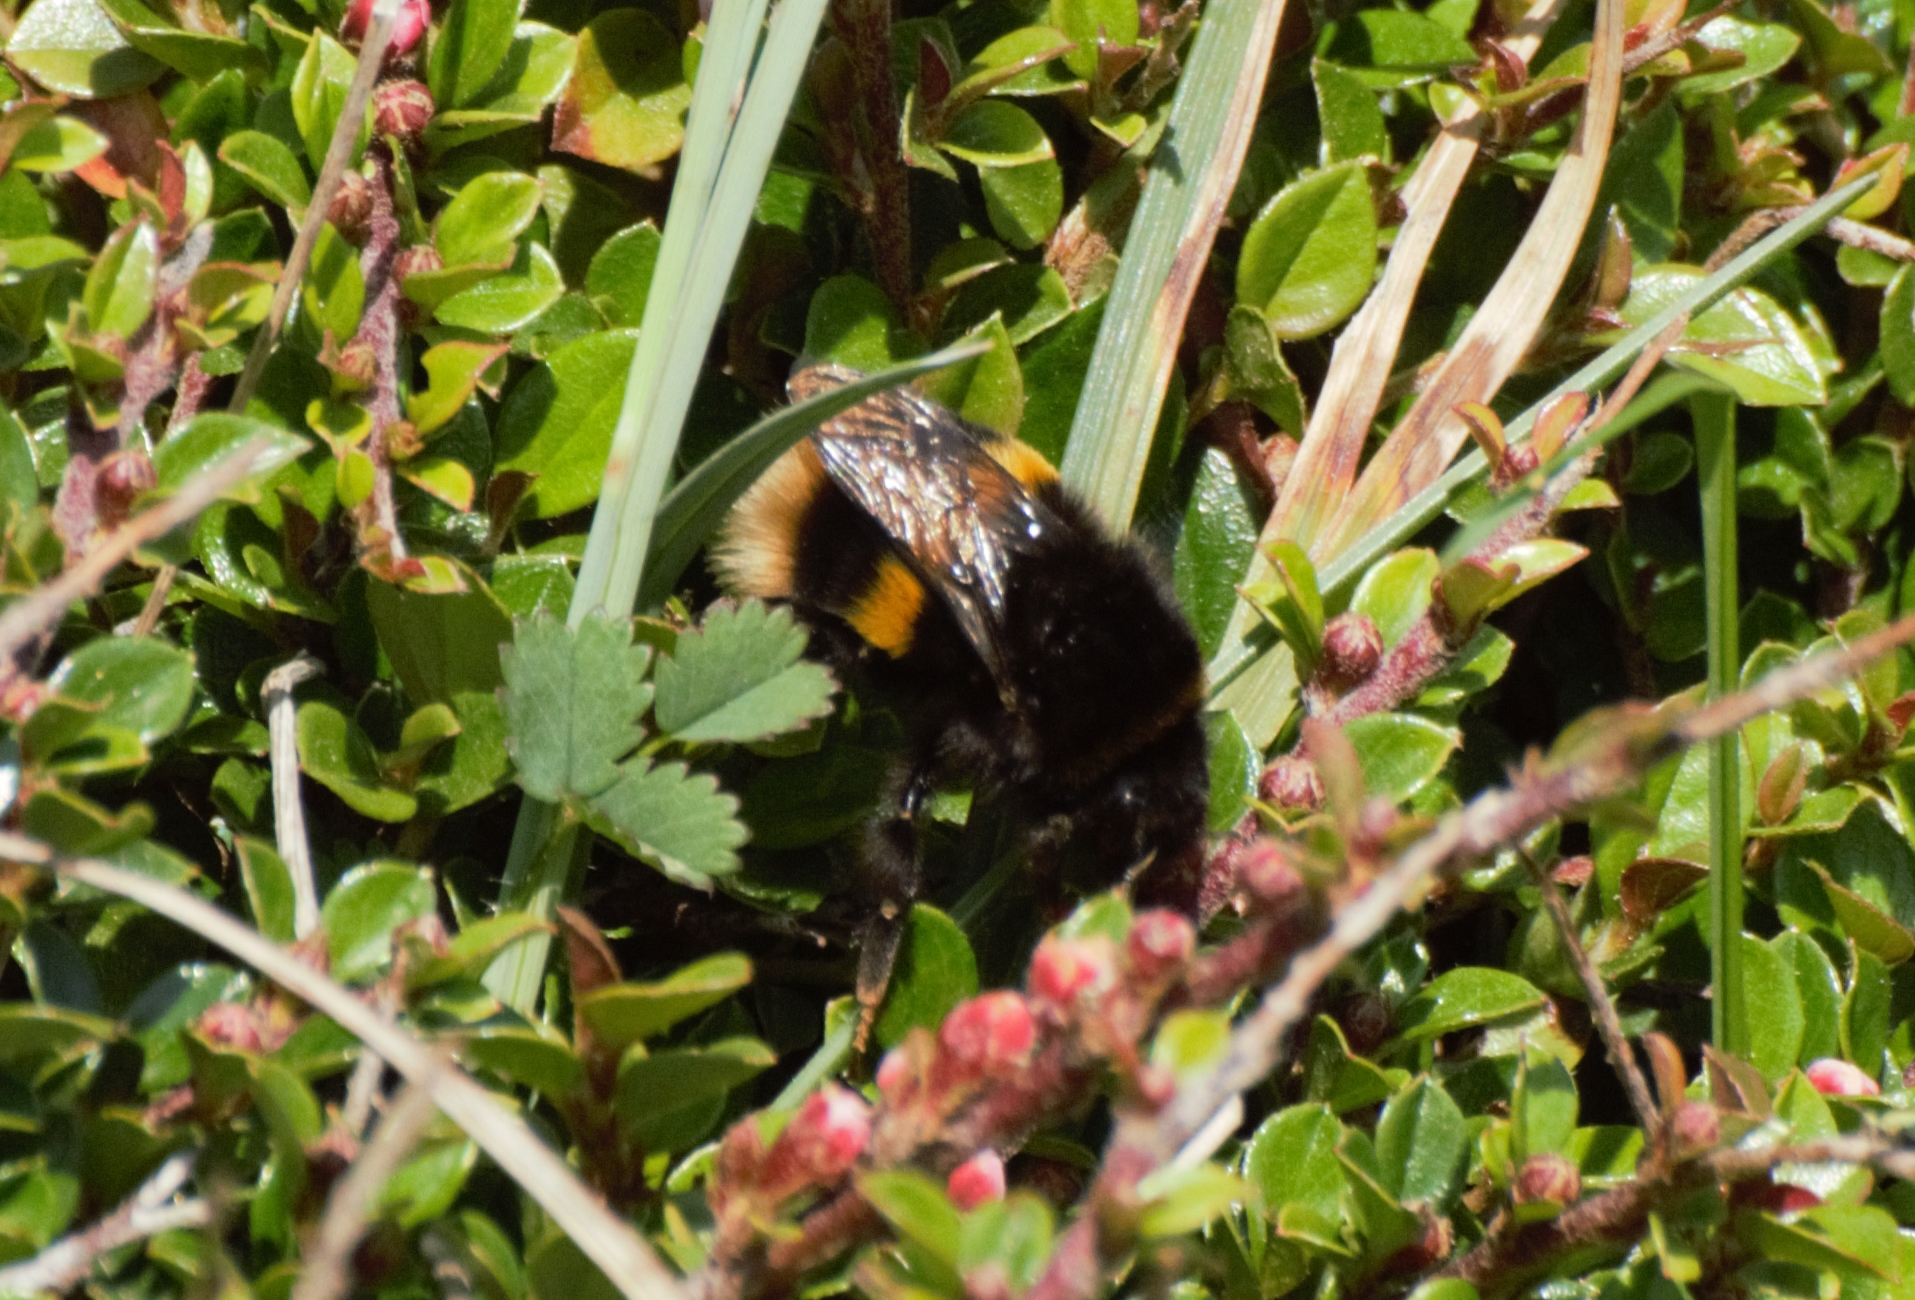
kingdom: Animalia
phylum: Arthropoda
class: Insecta
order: Hymenoptera
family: Apidae
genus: Bombus
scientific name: Bombus terrestris
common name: Buff-tailed bumblebee
